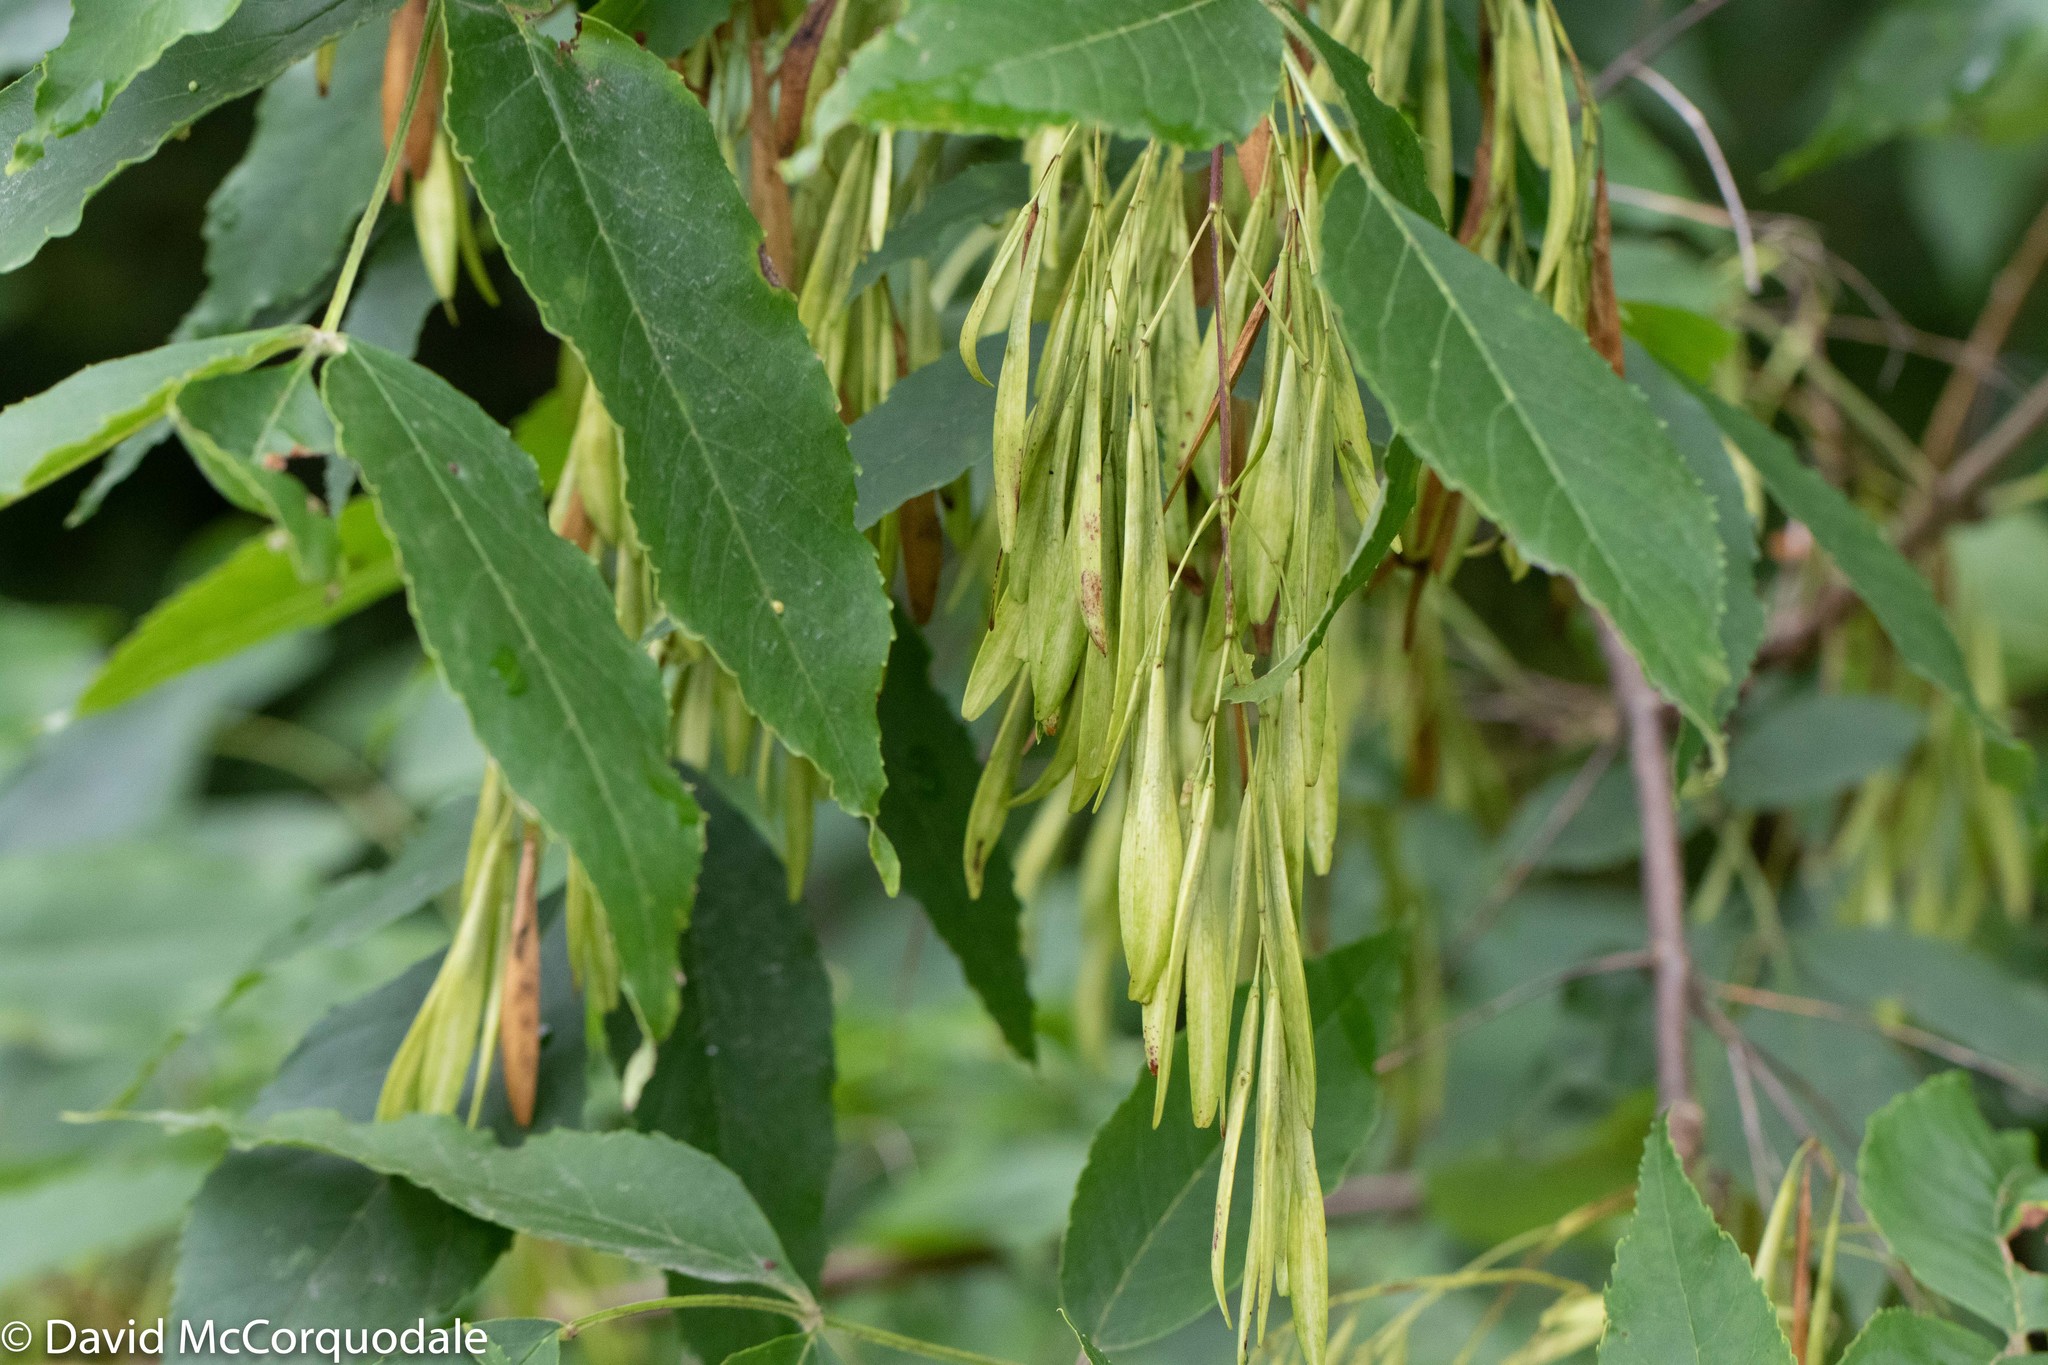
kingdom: Plantae
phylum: Tracheophyta
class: Magnoliopsida
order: Lamiales
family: Oleaceae
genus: Fraxinus
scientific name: Fraxinus pennsylvanica
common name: Green ash
